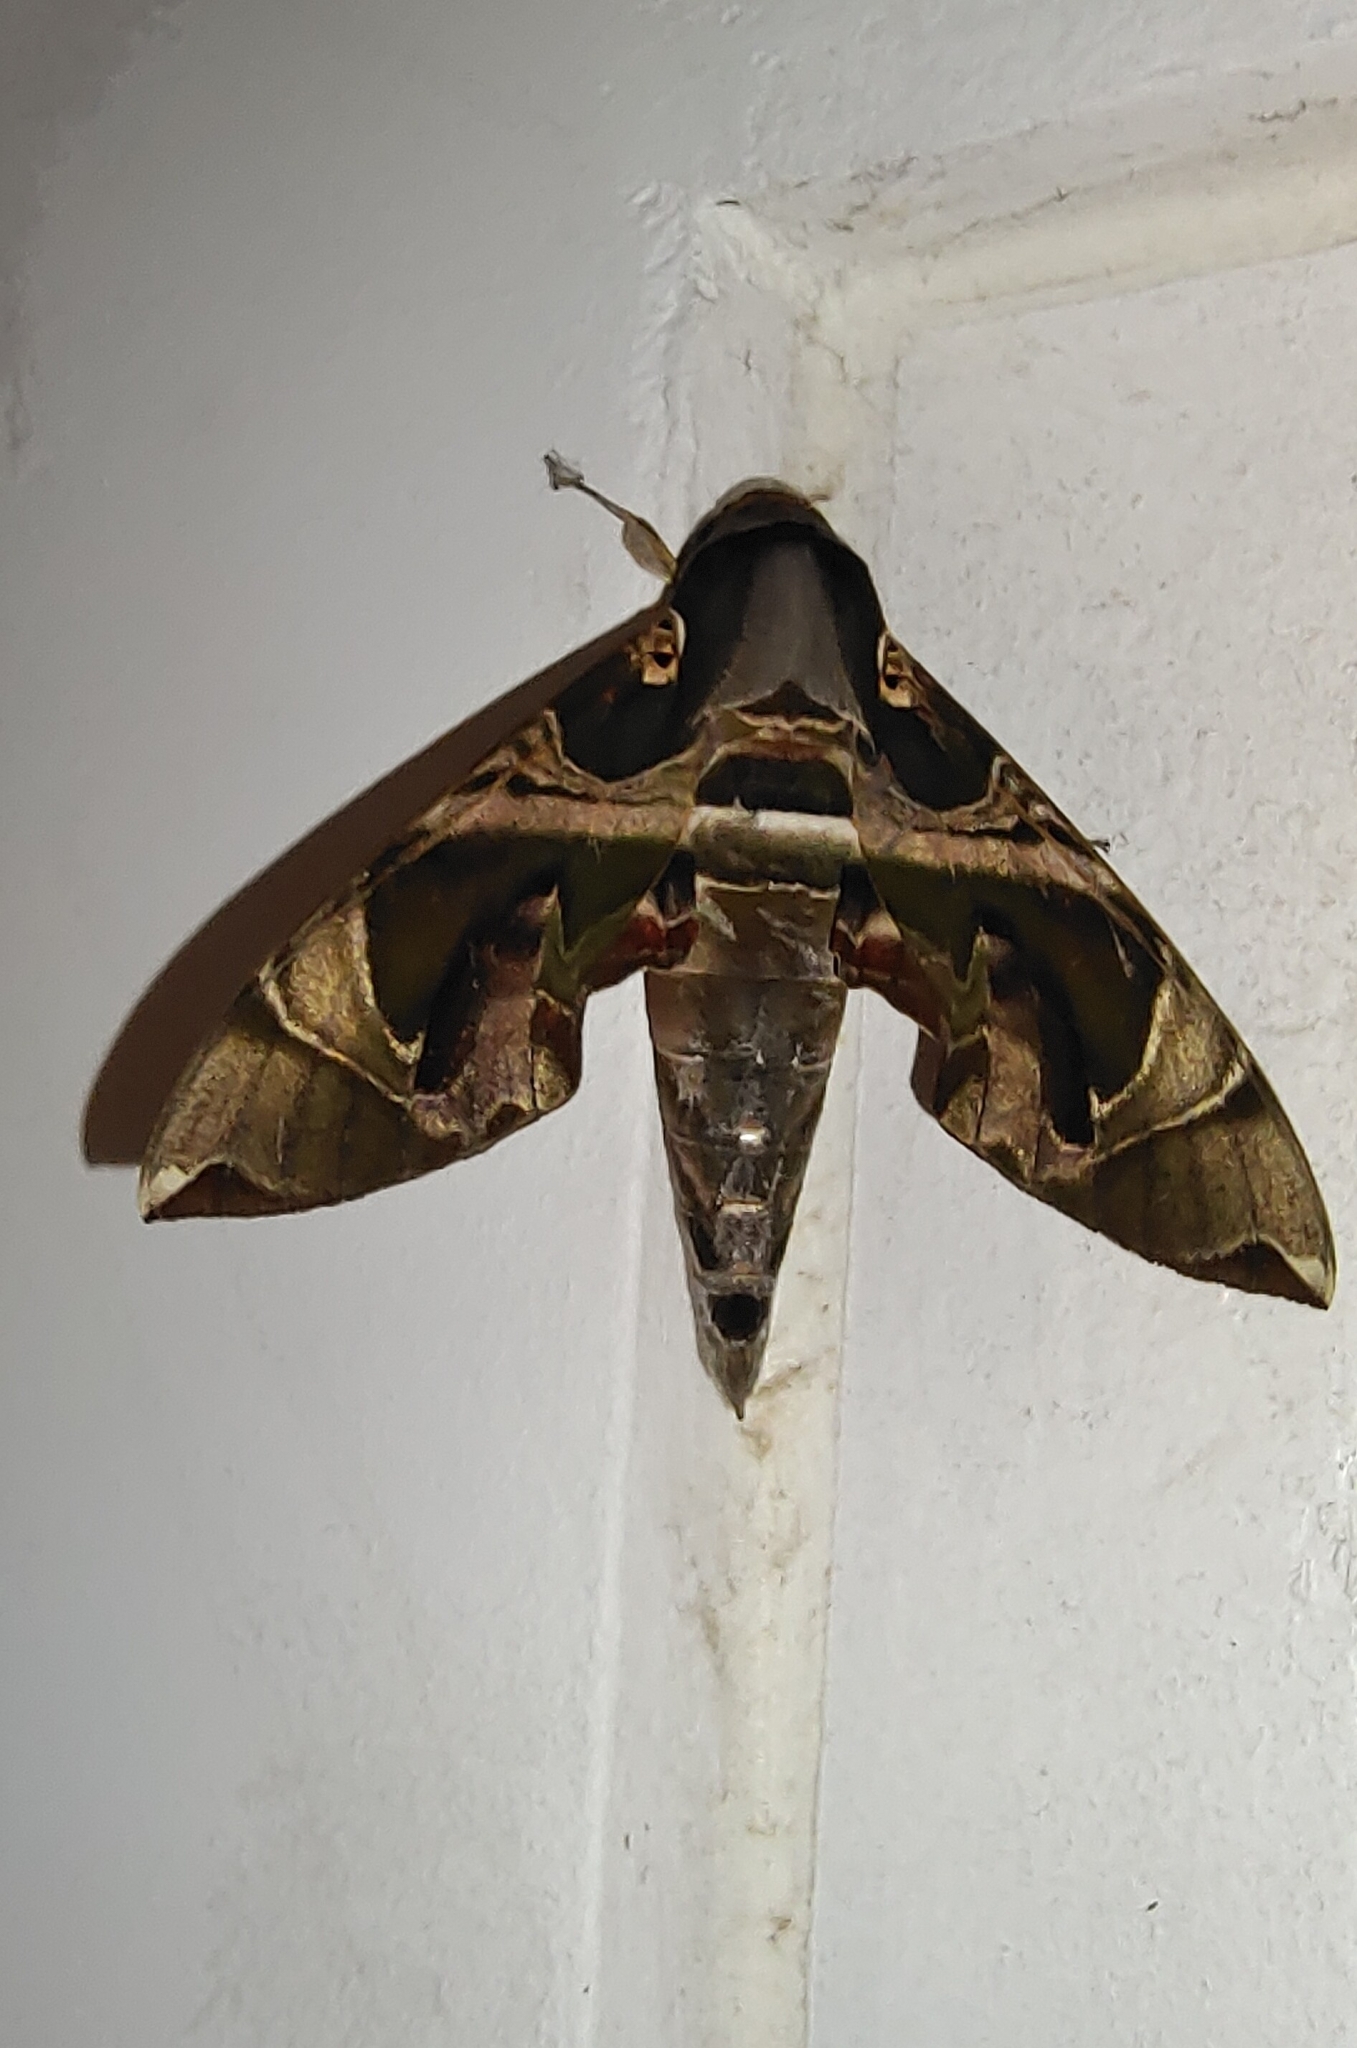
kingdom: Animalia
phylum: Arthropoda
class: Insecta
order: Lepidoptera
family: Sphingidae
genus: Daphnis
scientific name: Daphnis hypothous
